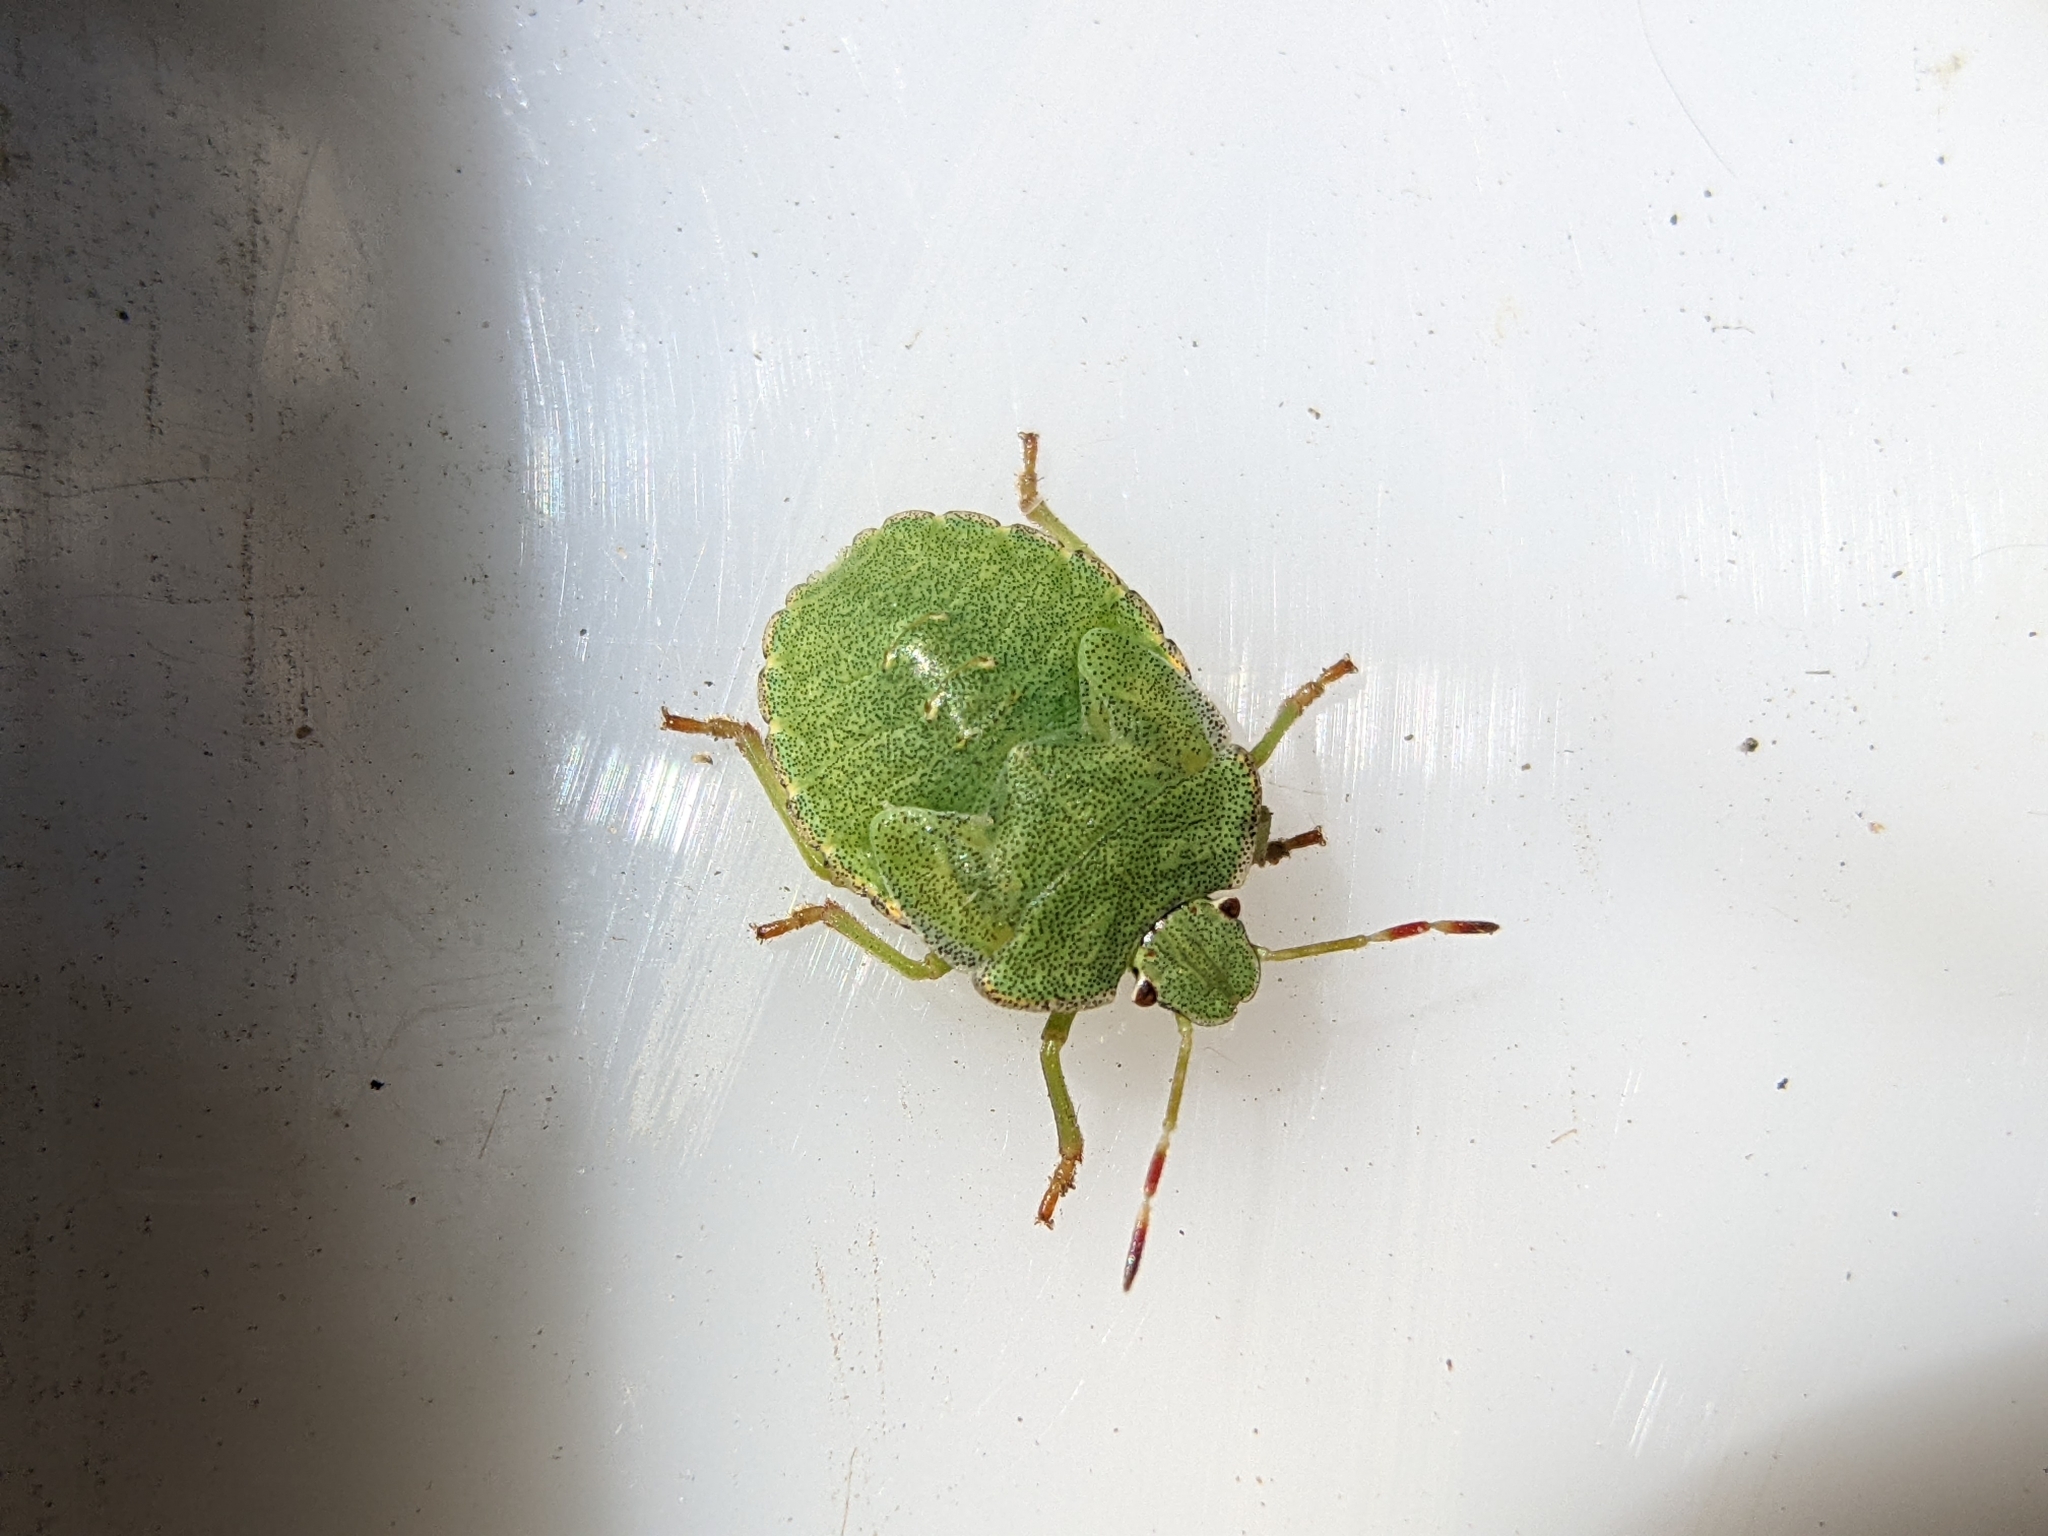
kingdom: Animalia
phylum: Arthropoda
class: Insecta
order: Hemiptera
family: Pentatomidae
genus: Palomena
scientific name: Palomena prasina
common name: Green shieldbug
